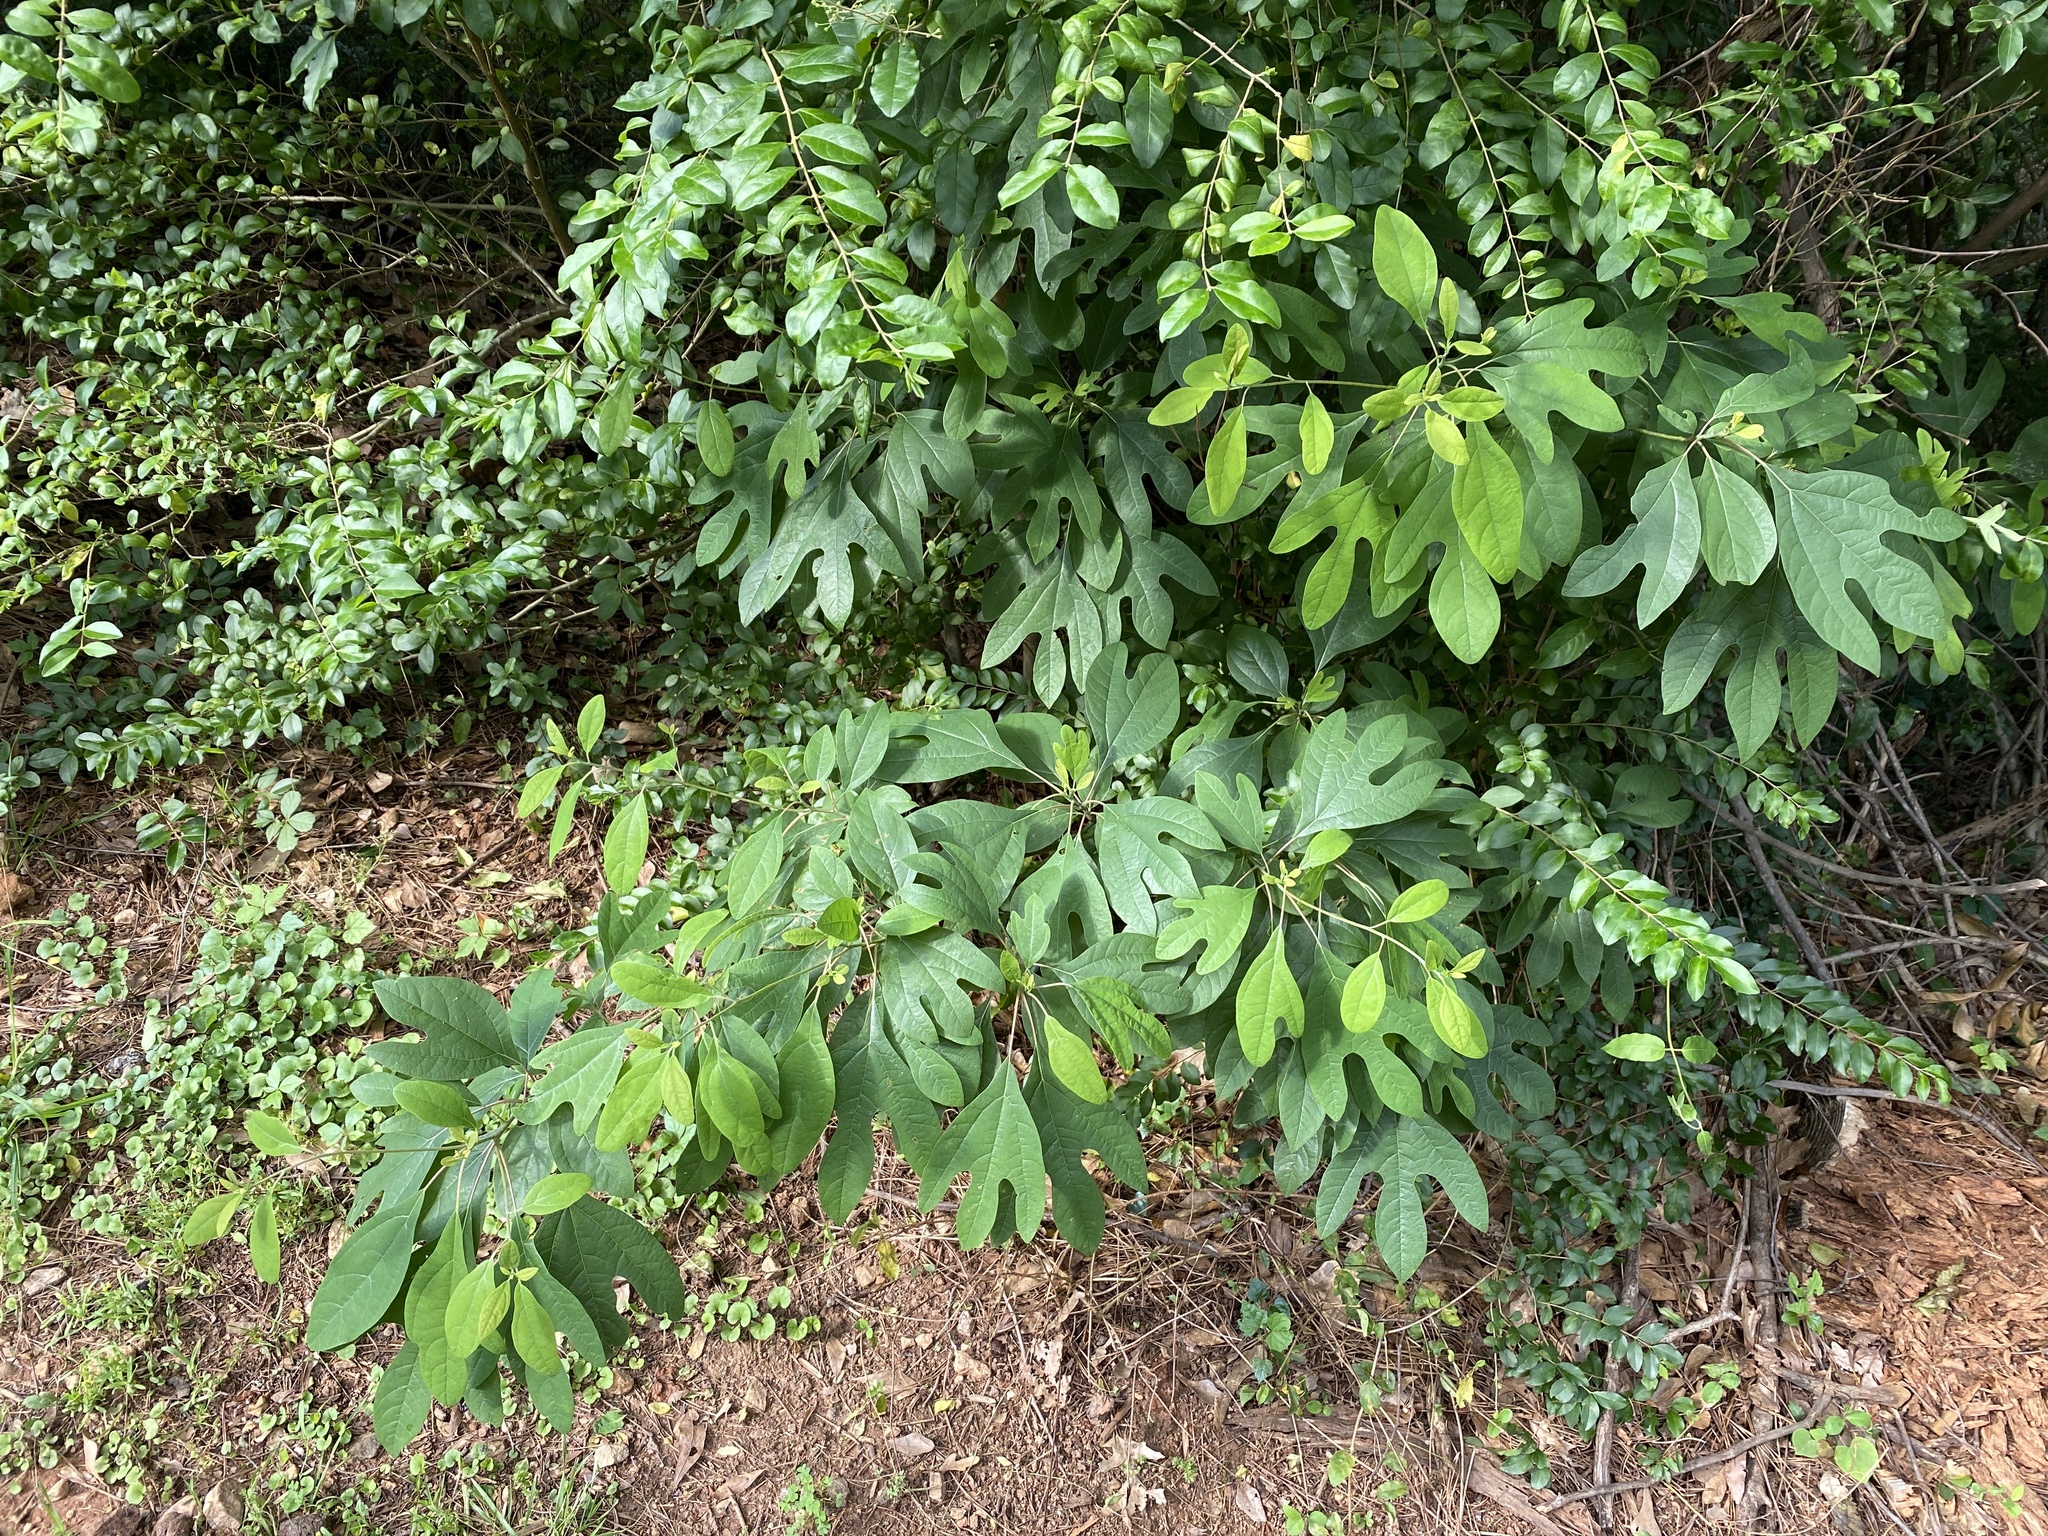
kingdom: Plantae
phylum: Tracheophyta
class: Magnoliopsida
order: Laurales
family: Lauraceae
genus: Sassafras
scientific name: Sassafras albidum
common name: Sassafras
